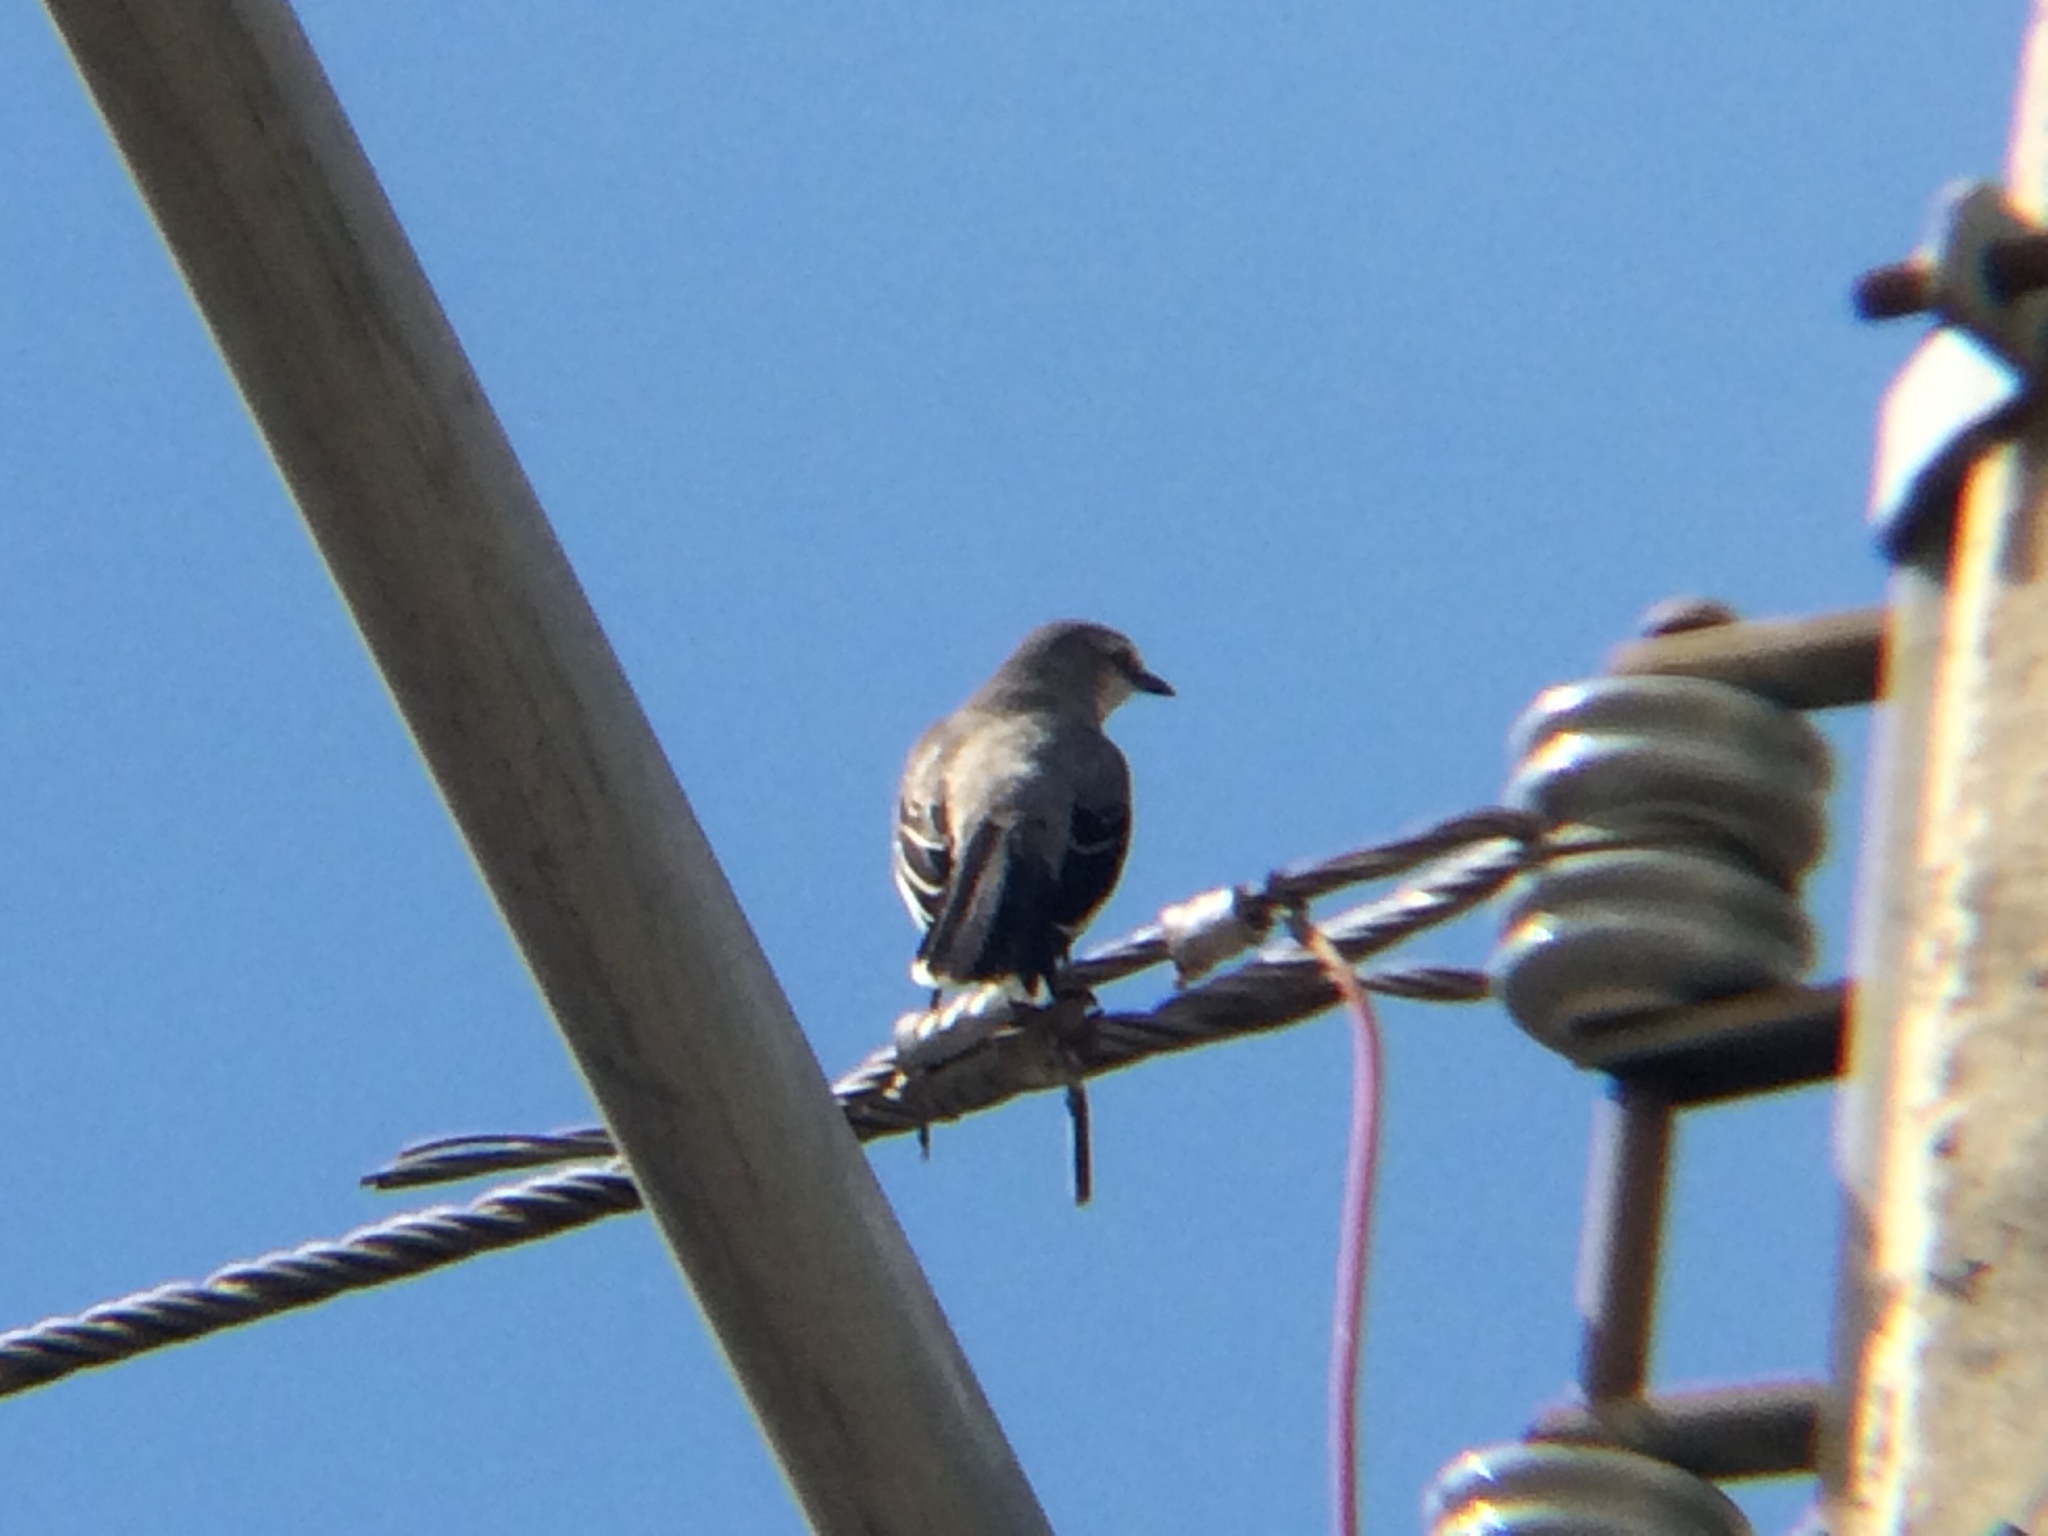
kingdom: Animalia
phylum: Chordata
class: Aves
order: Passeriformes
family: Mimidae
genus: Mimus
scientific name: Mimus gilvus
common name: Tropical mockingbird
